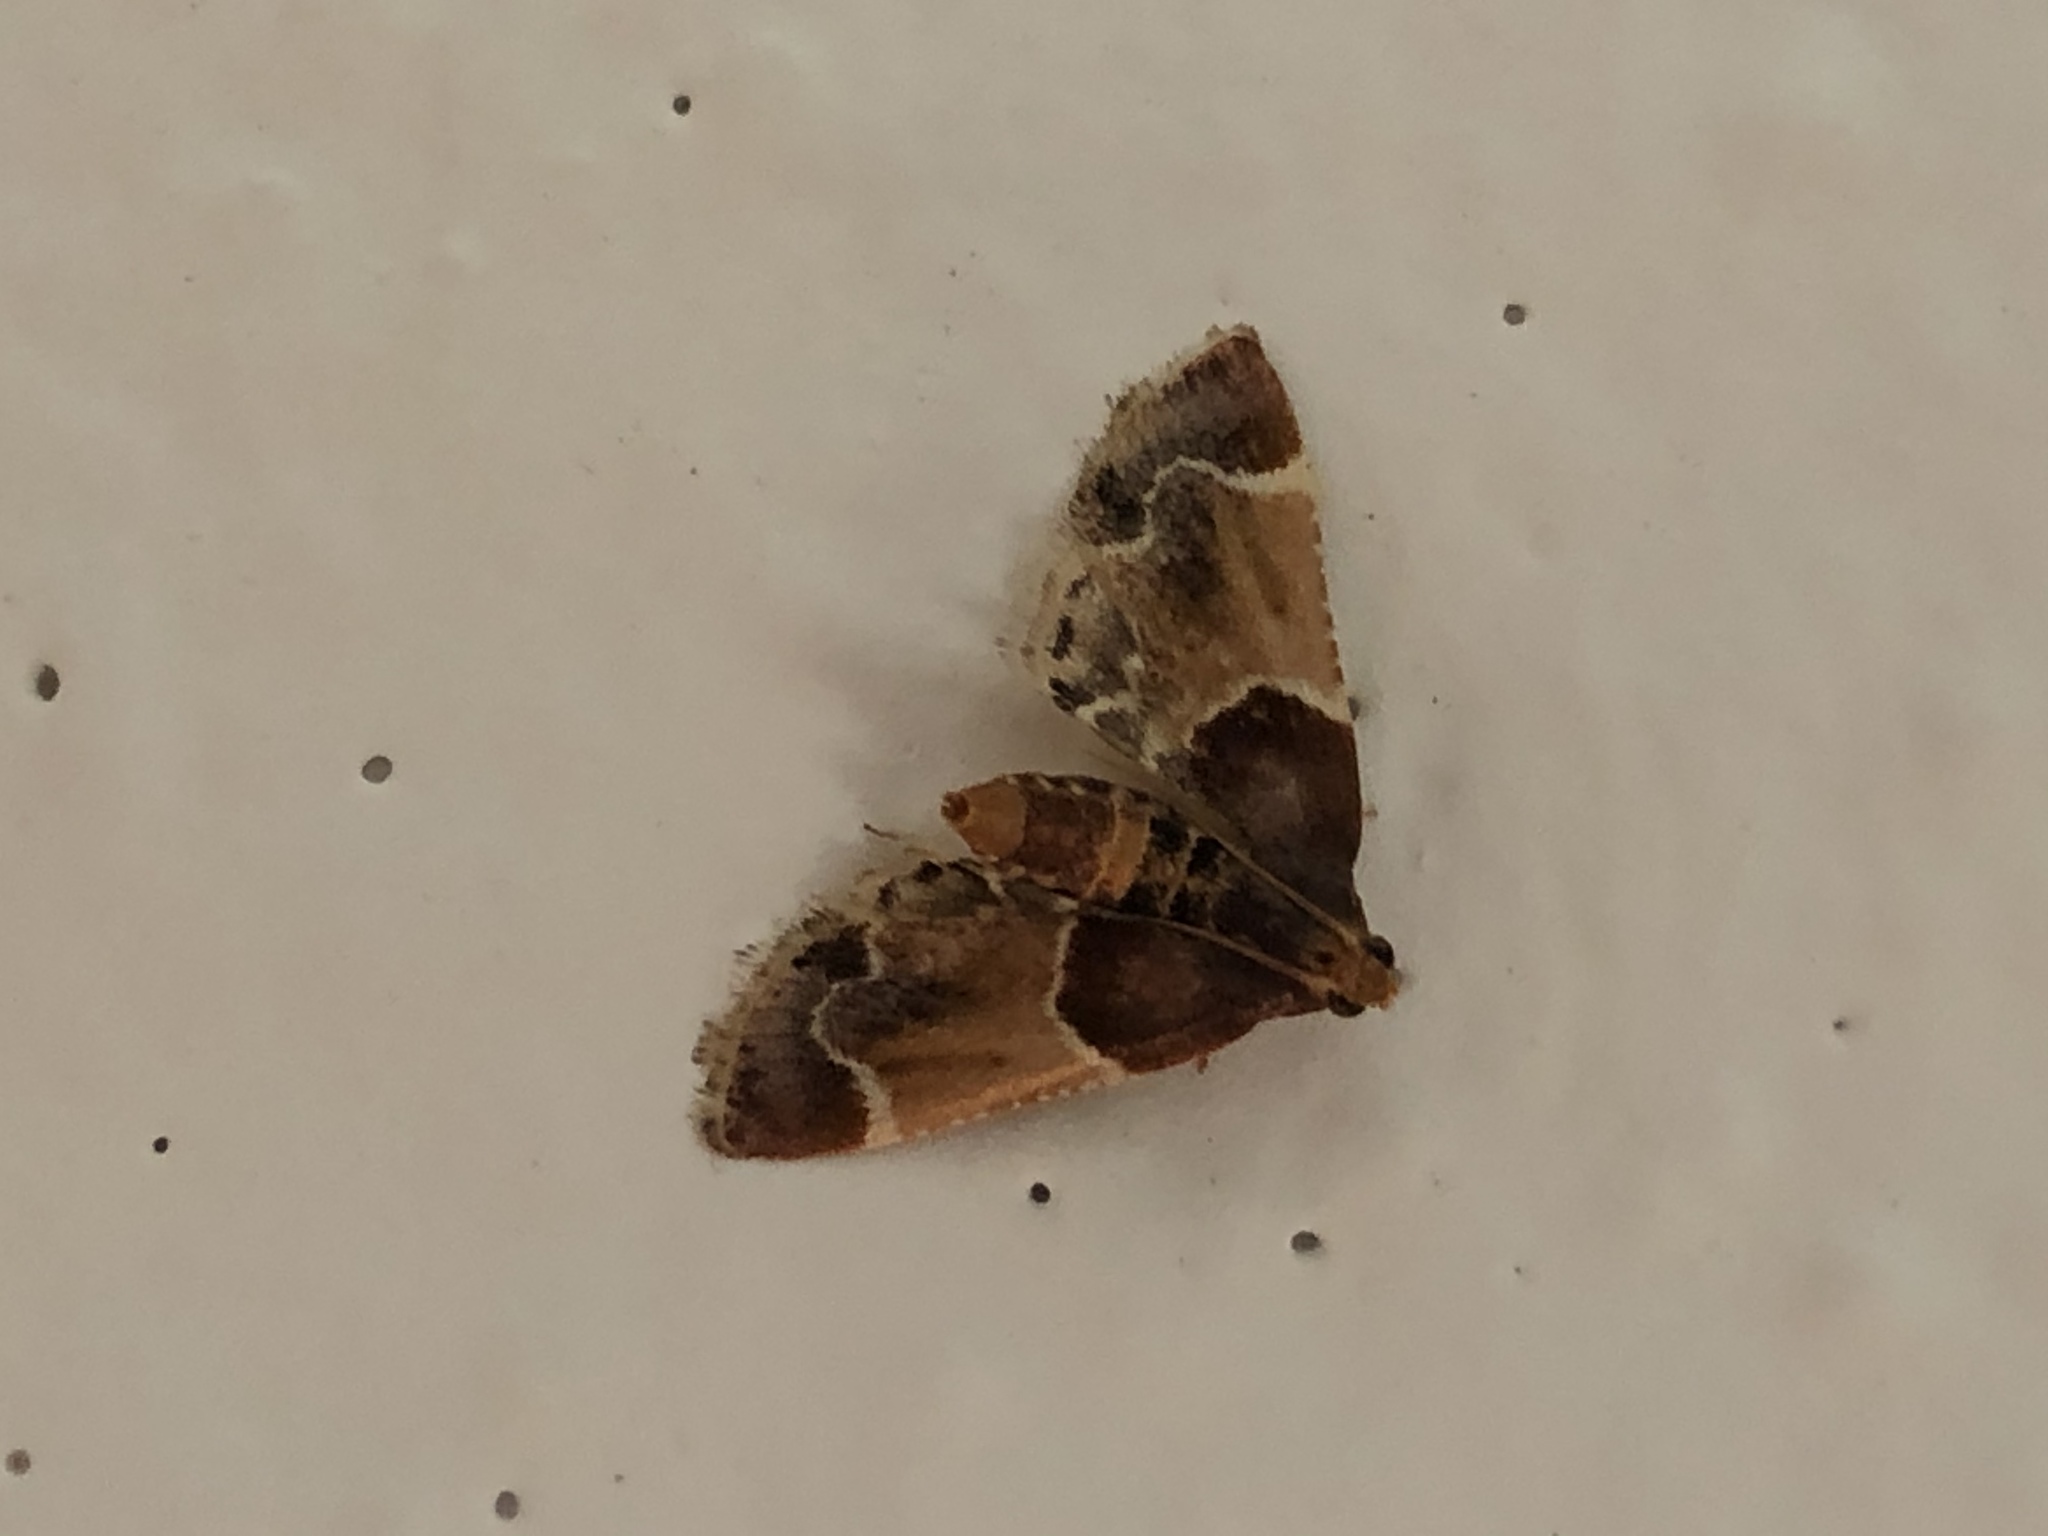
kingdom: Animalia
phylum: Arthropoda
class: Insecta
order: Lepidoptera
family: Pyralidae
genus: Pyralis
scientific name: Pyralis farinalis
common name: Meal moth
